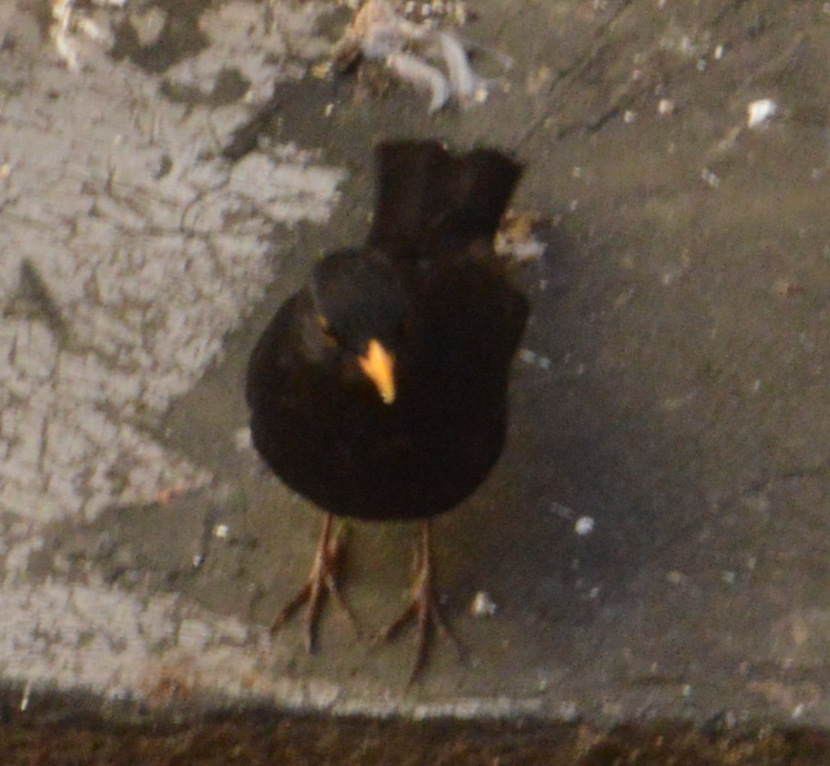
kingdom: Animalia
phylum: Chordata
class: Aves
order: Passeriformes
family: Turdidae
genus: Turdus
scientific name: Turdus merula
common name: Common blackbird
